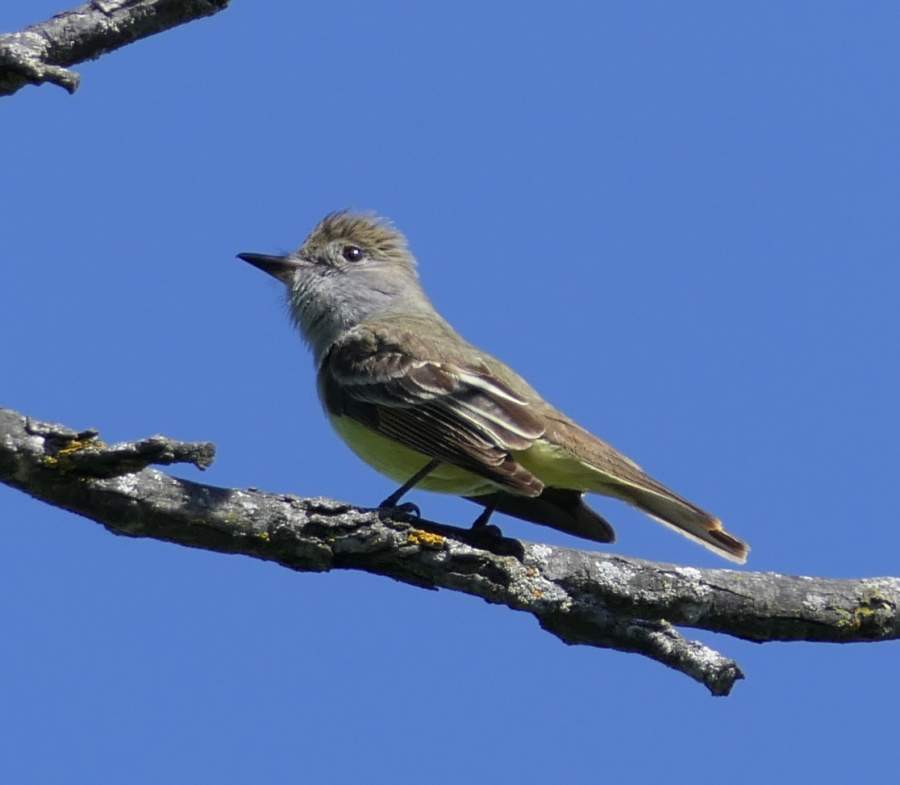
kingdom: Animalia
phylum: Chordata
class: Aves
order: Passeriformes
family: Tyrannidae
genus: Myiarchus
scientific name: Myiarchus crinitus
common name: Great crested flycatcher
